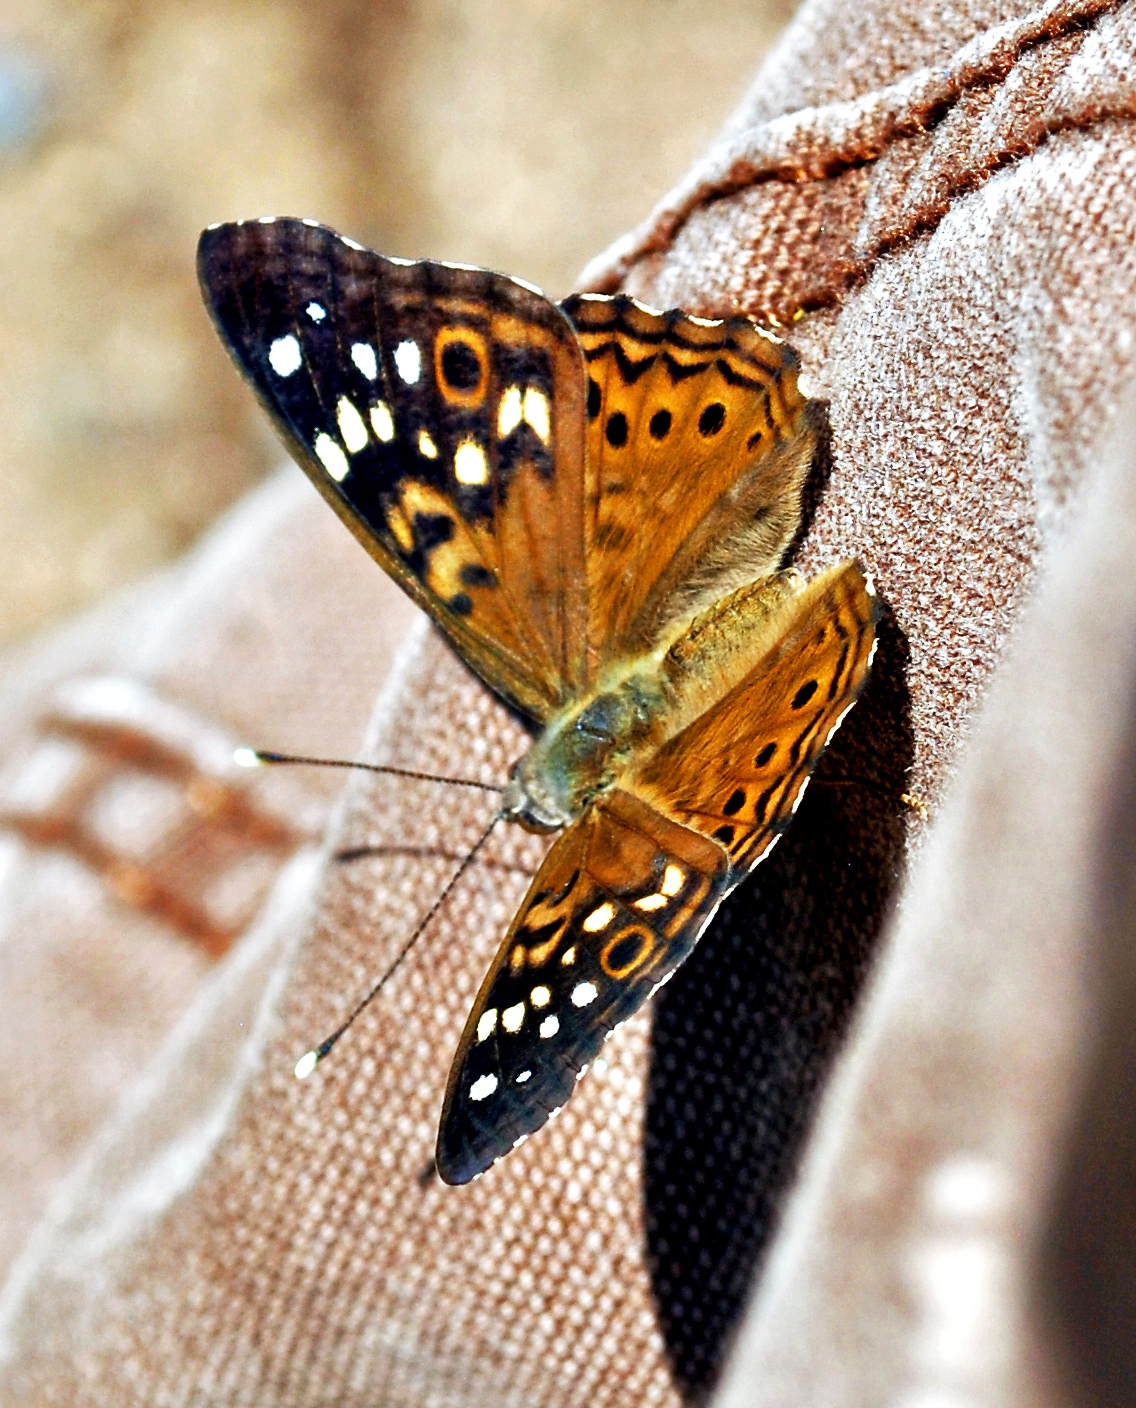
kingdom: Animalia
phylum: Arthropoda
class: Insecta
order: Lepidoptera
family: Nymphalidae
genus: Asterocampa
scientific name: Asterocampa celtis
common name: Hackberry emperor
